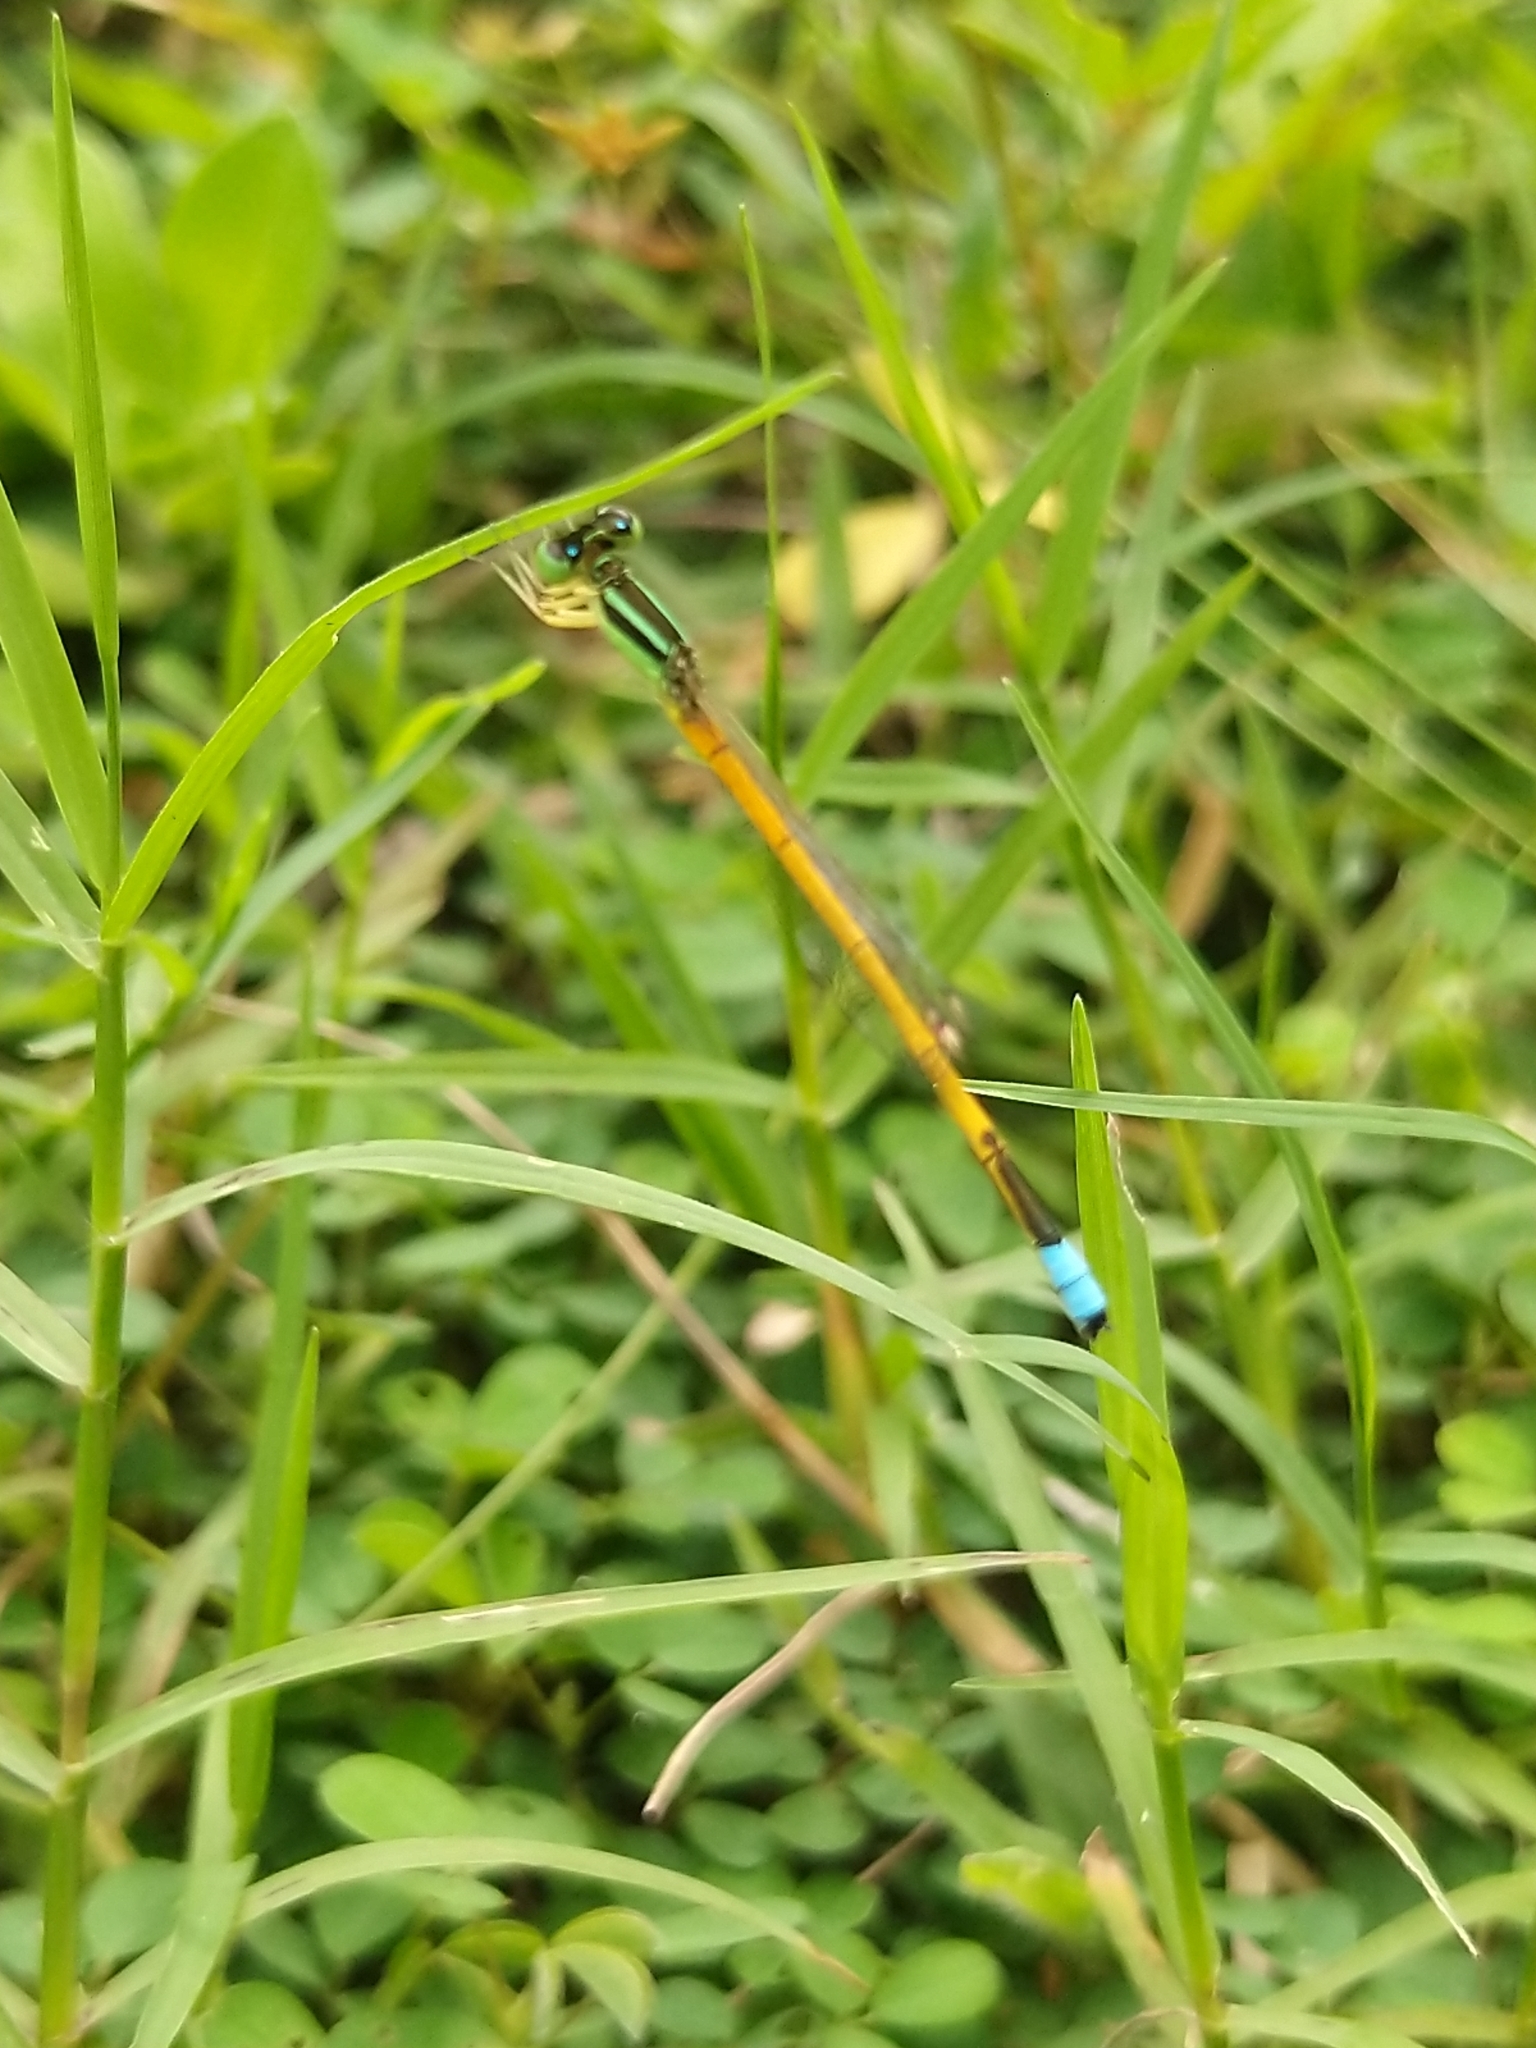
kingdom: Animalia
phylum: Arthropoda
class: Insecta
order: Odonata
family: Coenagrionidae
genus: Ischnura
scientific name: Ischnura rubilio
